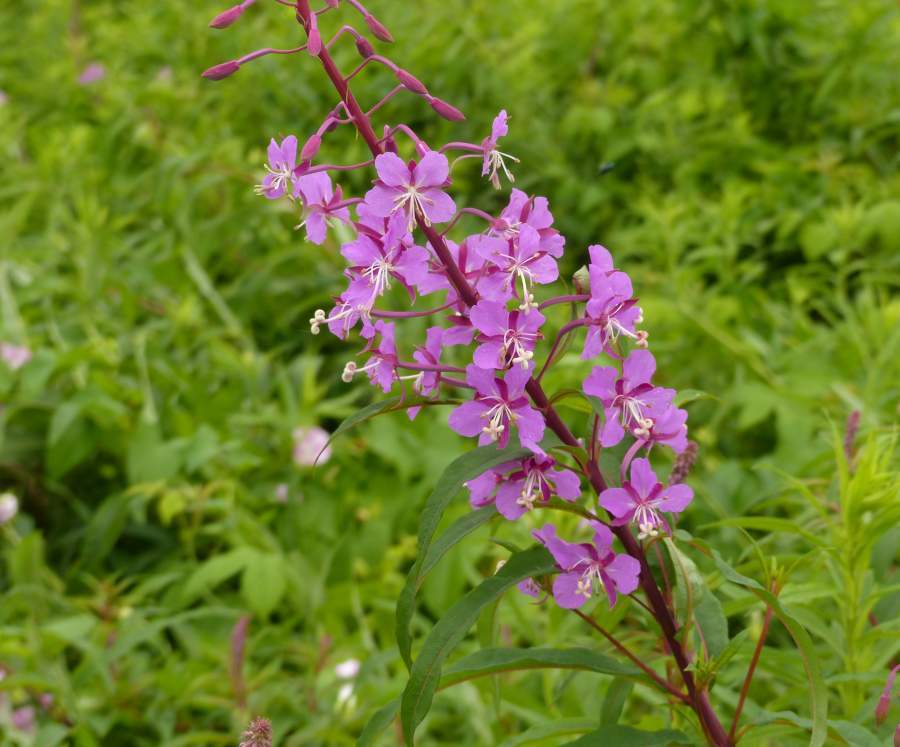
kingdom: Plantae
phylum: Tracheophyta
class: Magnoliopsida
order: Myrtales
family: Onagraceae
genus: Chamaenerion
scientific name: Chamaenerion angustifolium
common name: Fireweed
